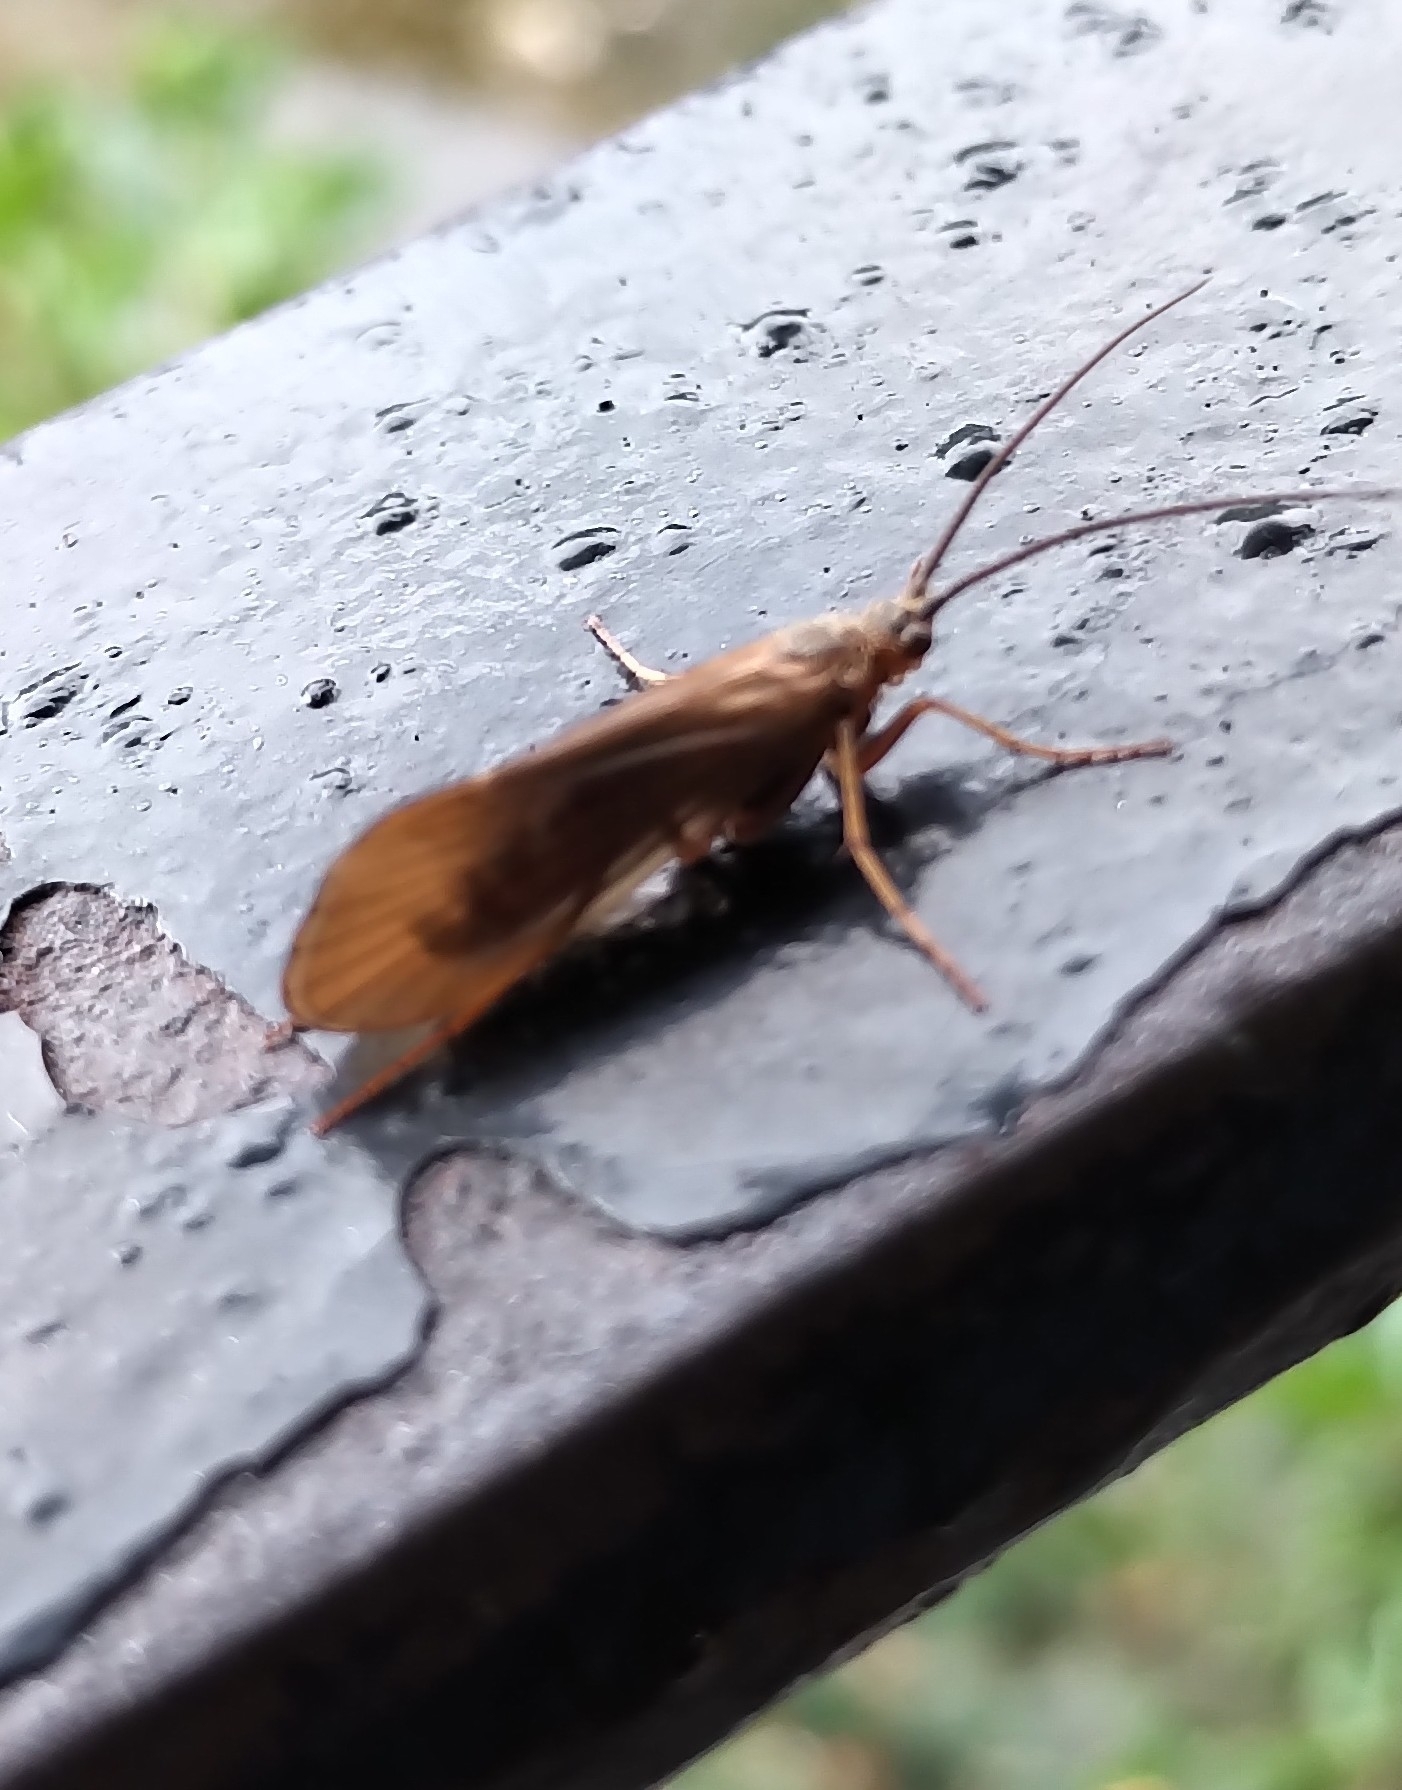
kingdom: Animalia
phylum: Arthropoda
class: Insecta
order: Trichoptera
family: Limnephilidae
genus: Anabolia
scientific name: Anabolia nervosa
